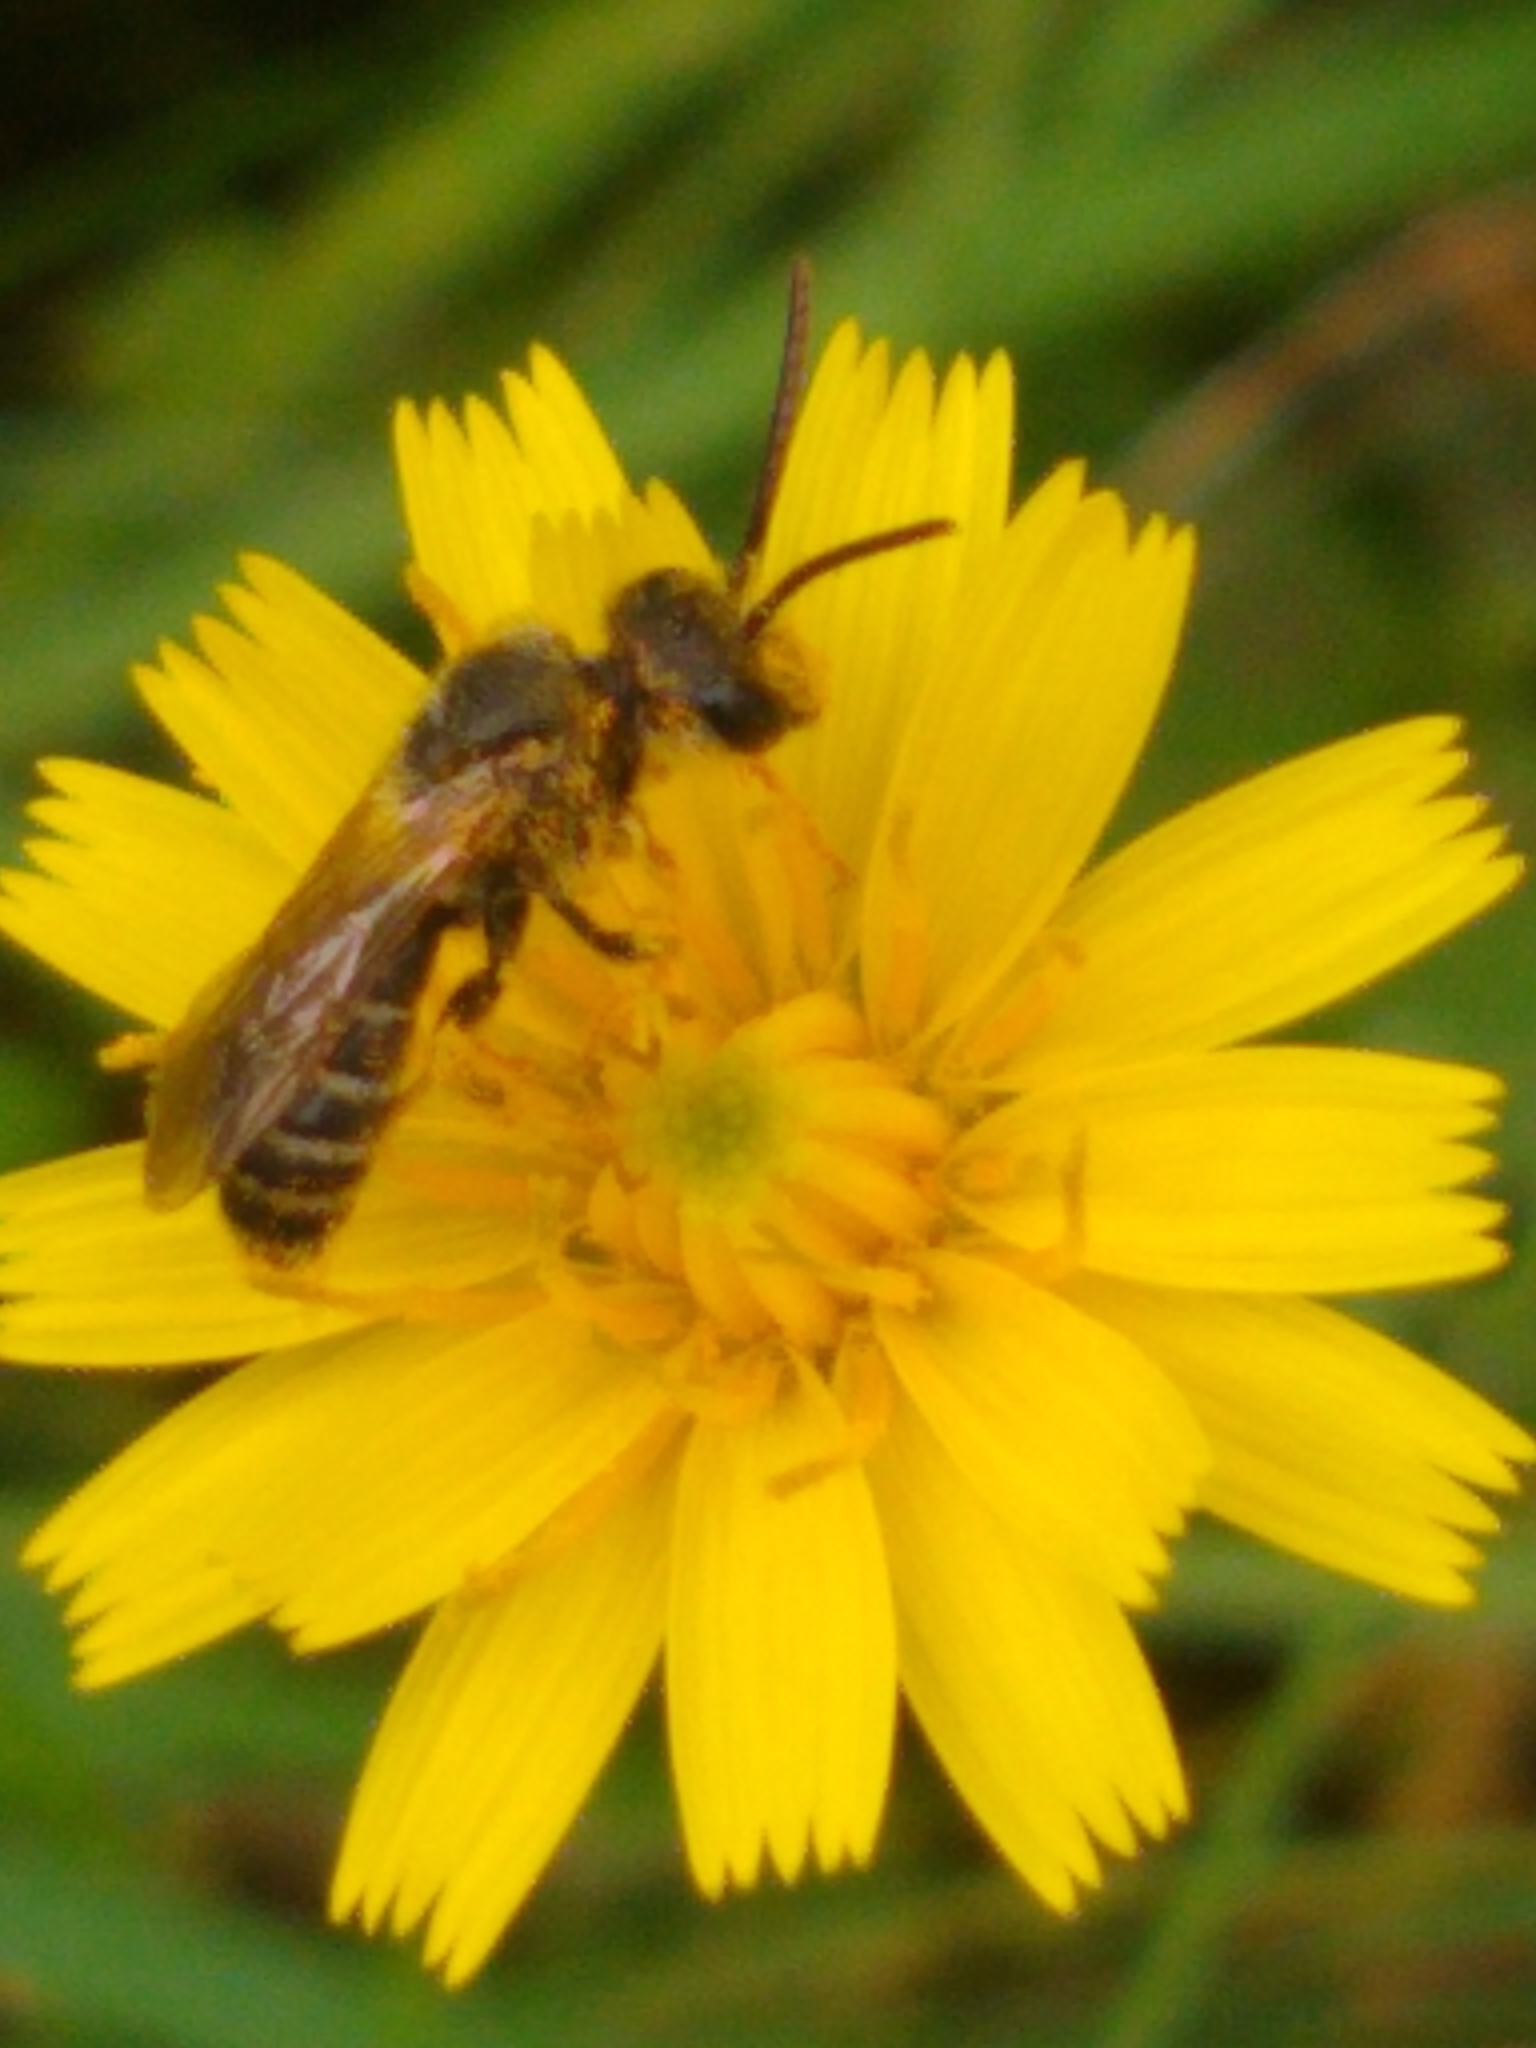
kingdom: Animalia
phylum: Arthropoda
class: Insecta
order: Hymenoptera
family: Halictidae
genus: Halictus
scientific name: Halictus ligatus
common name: Ligated furrow bee
